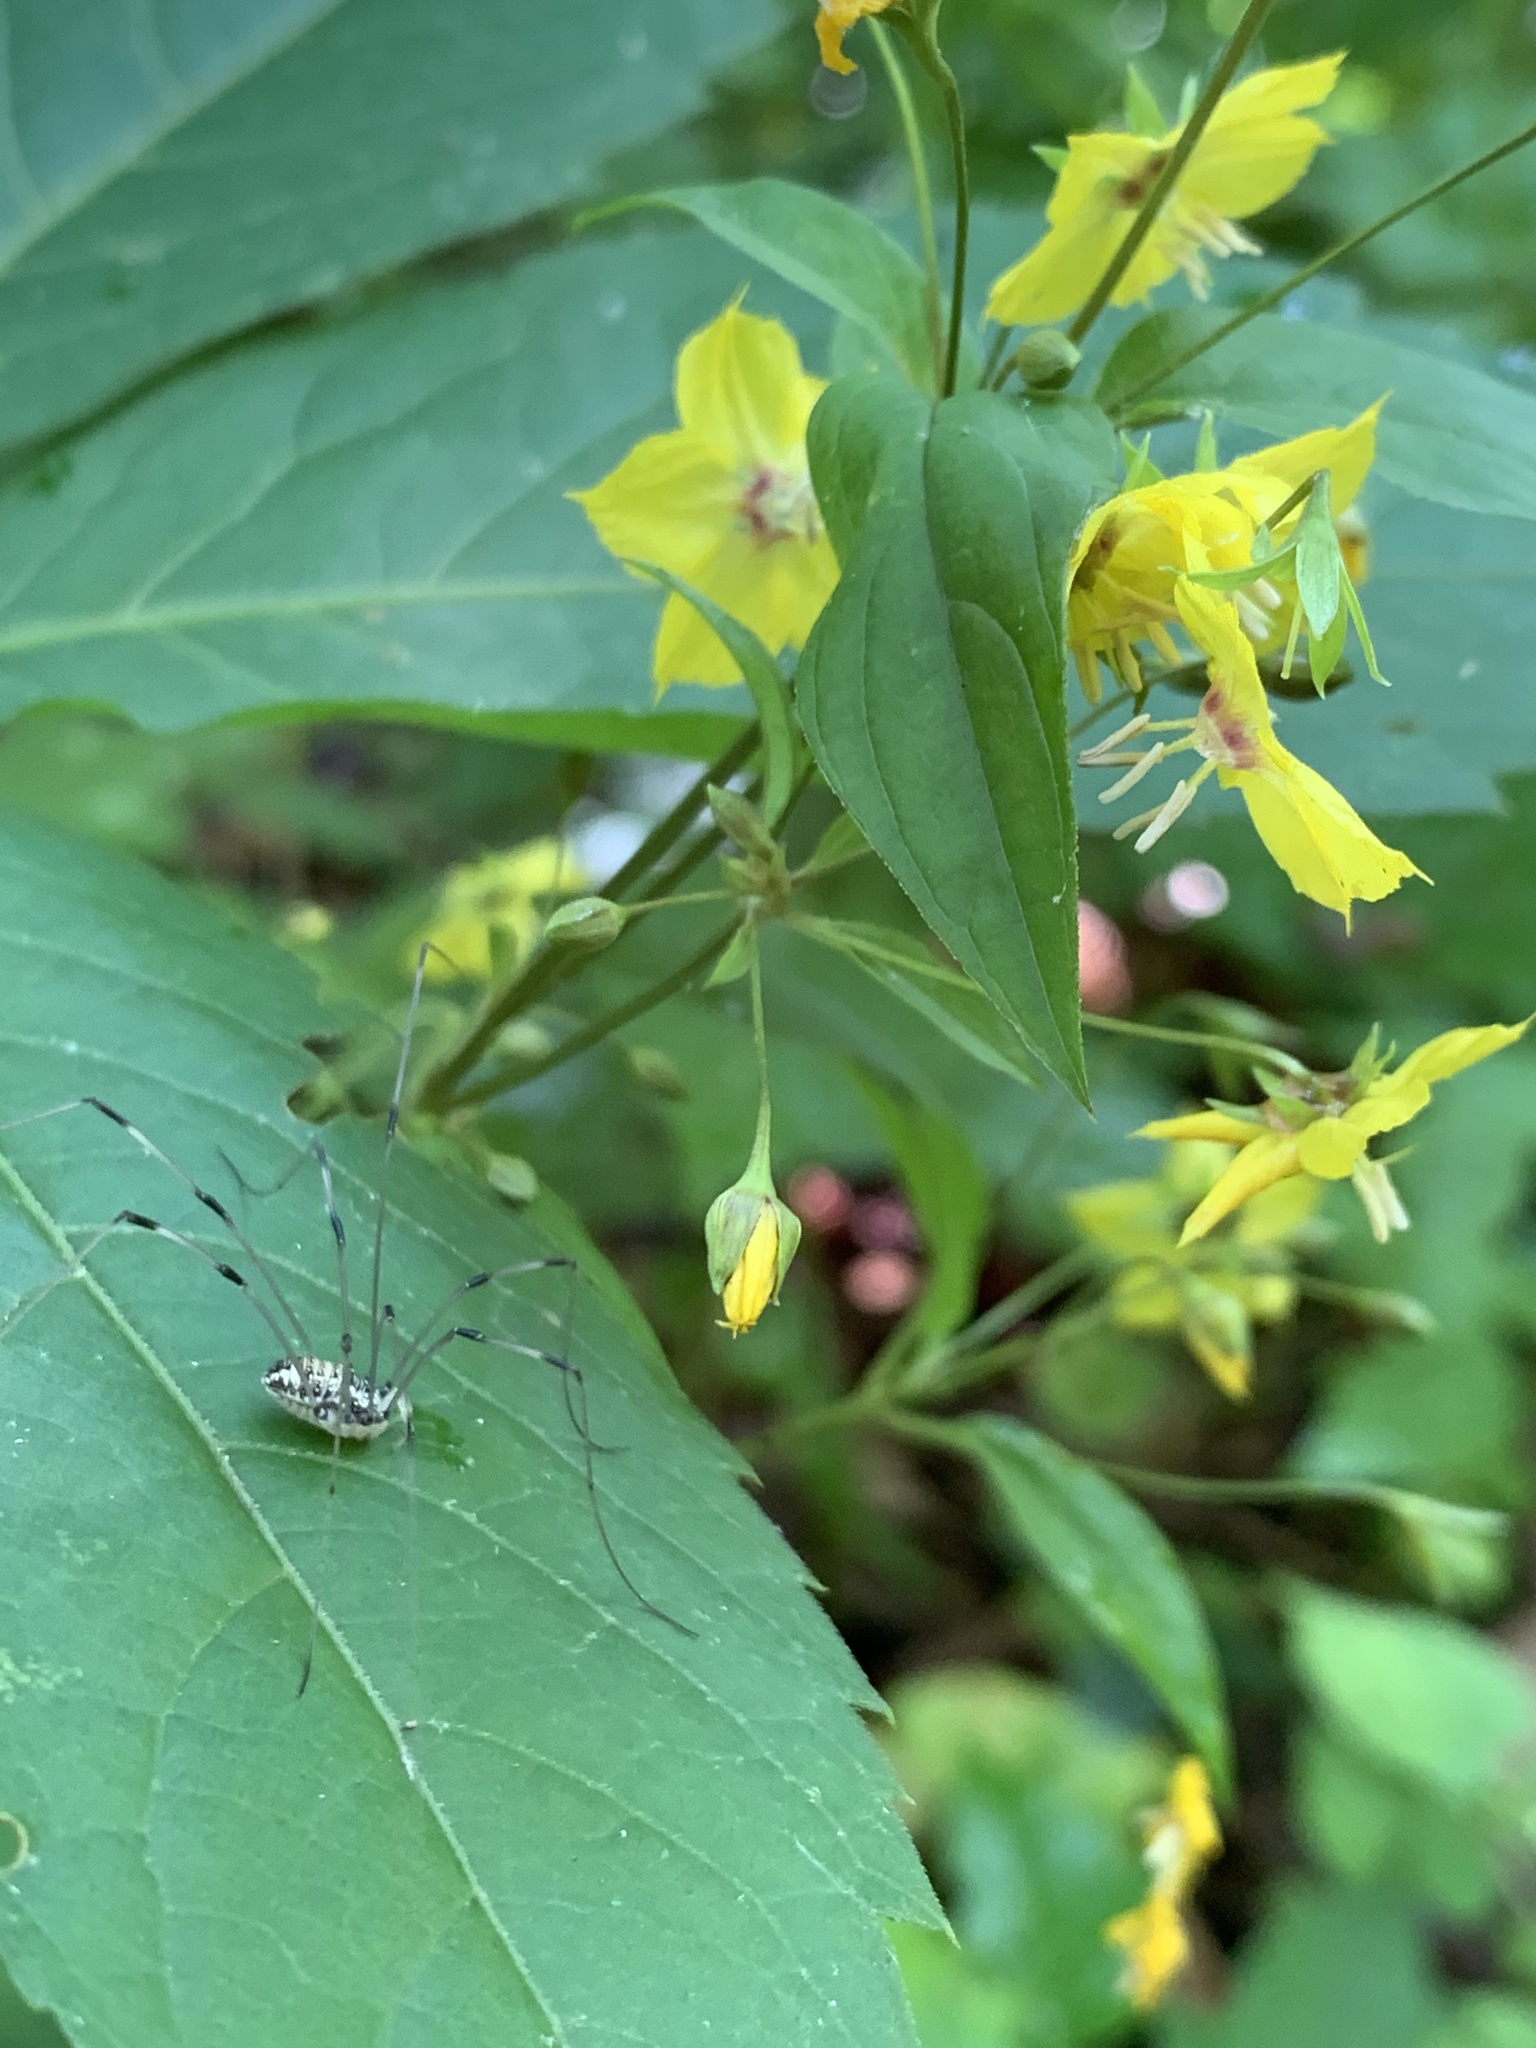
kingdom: Plantae
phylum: Tracheophyta
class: Magnoliopsida
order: Ericales
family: Primulaceae
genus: Lysimachia
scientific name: Lysimachia ciliata
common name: Fringed loosestrife
